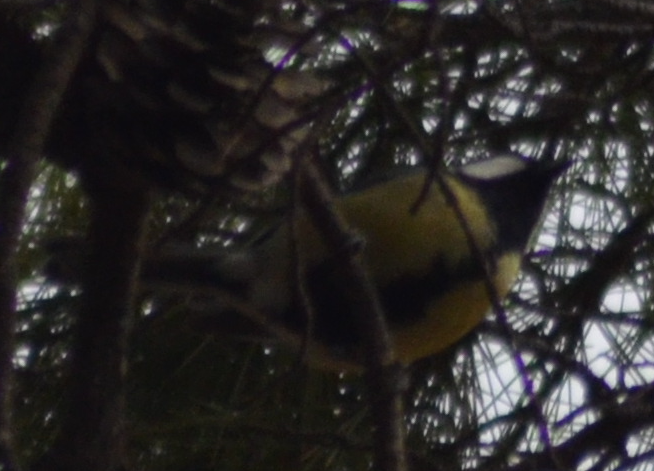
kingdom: Animalia
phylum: Chordata
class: Aves
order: Passeriformes
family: Paridae
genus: Parus
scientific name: Parus major
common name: Great tit
